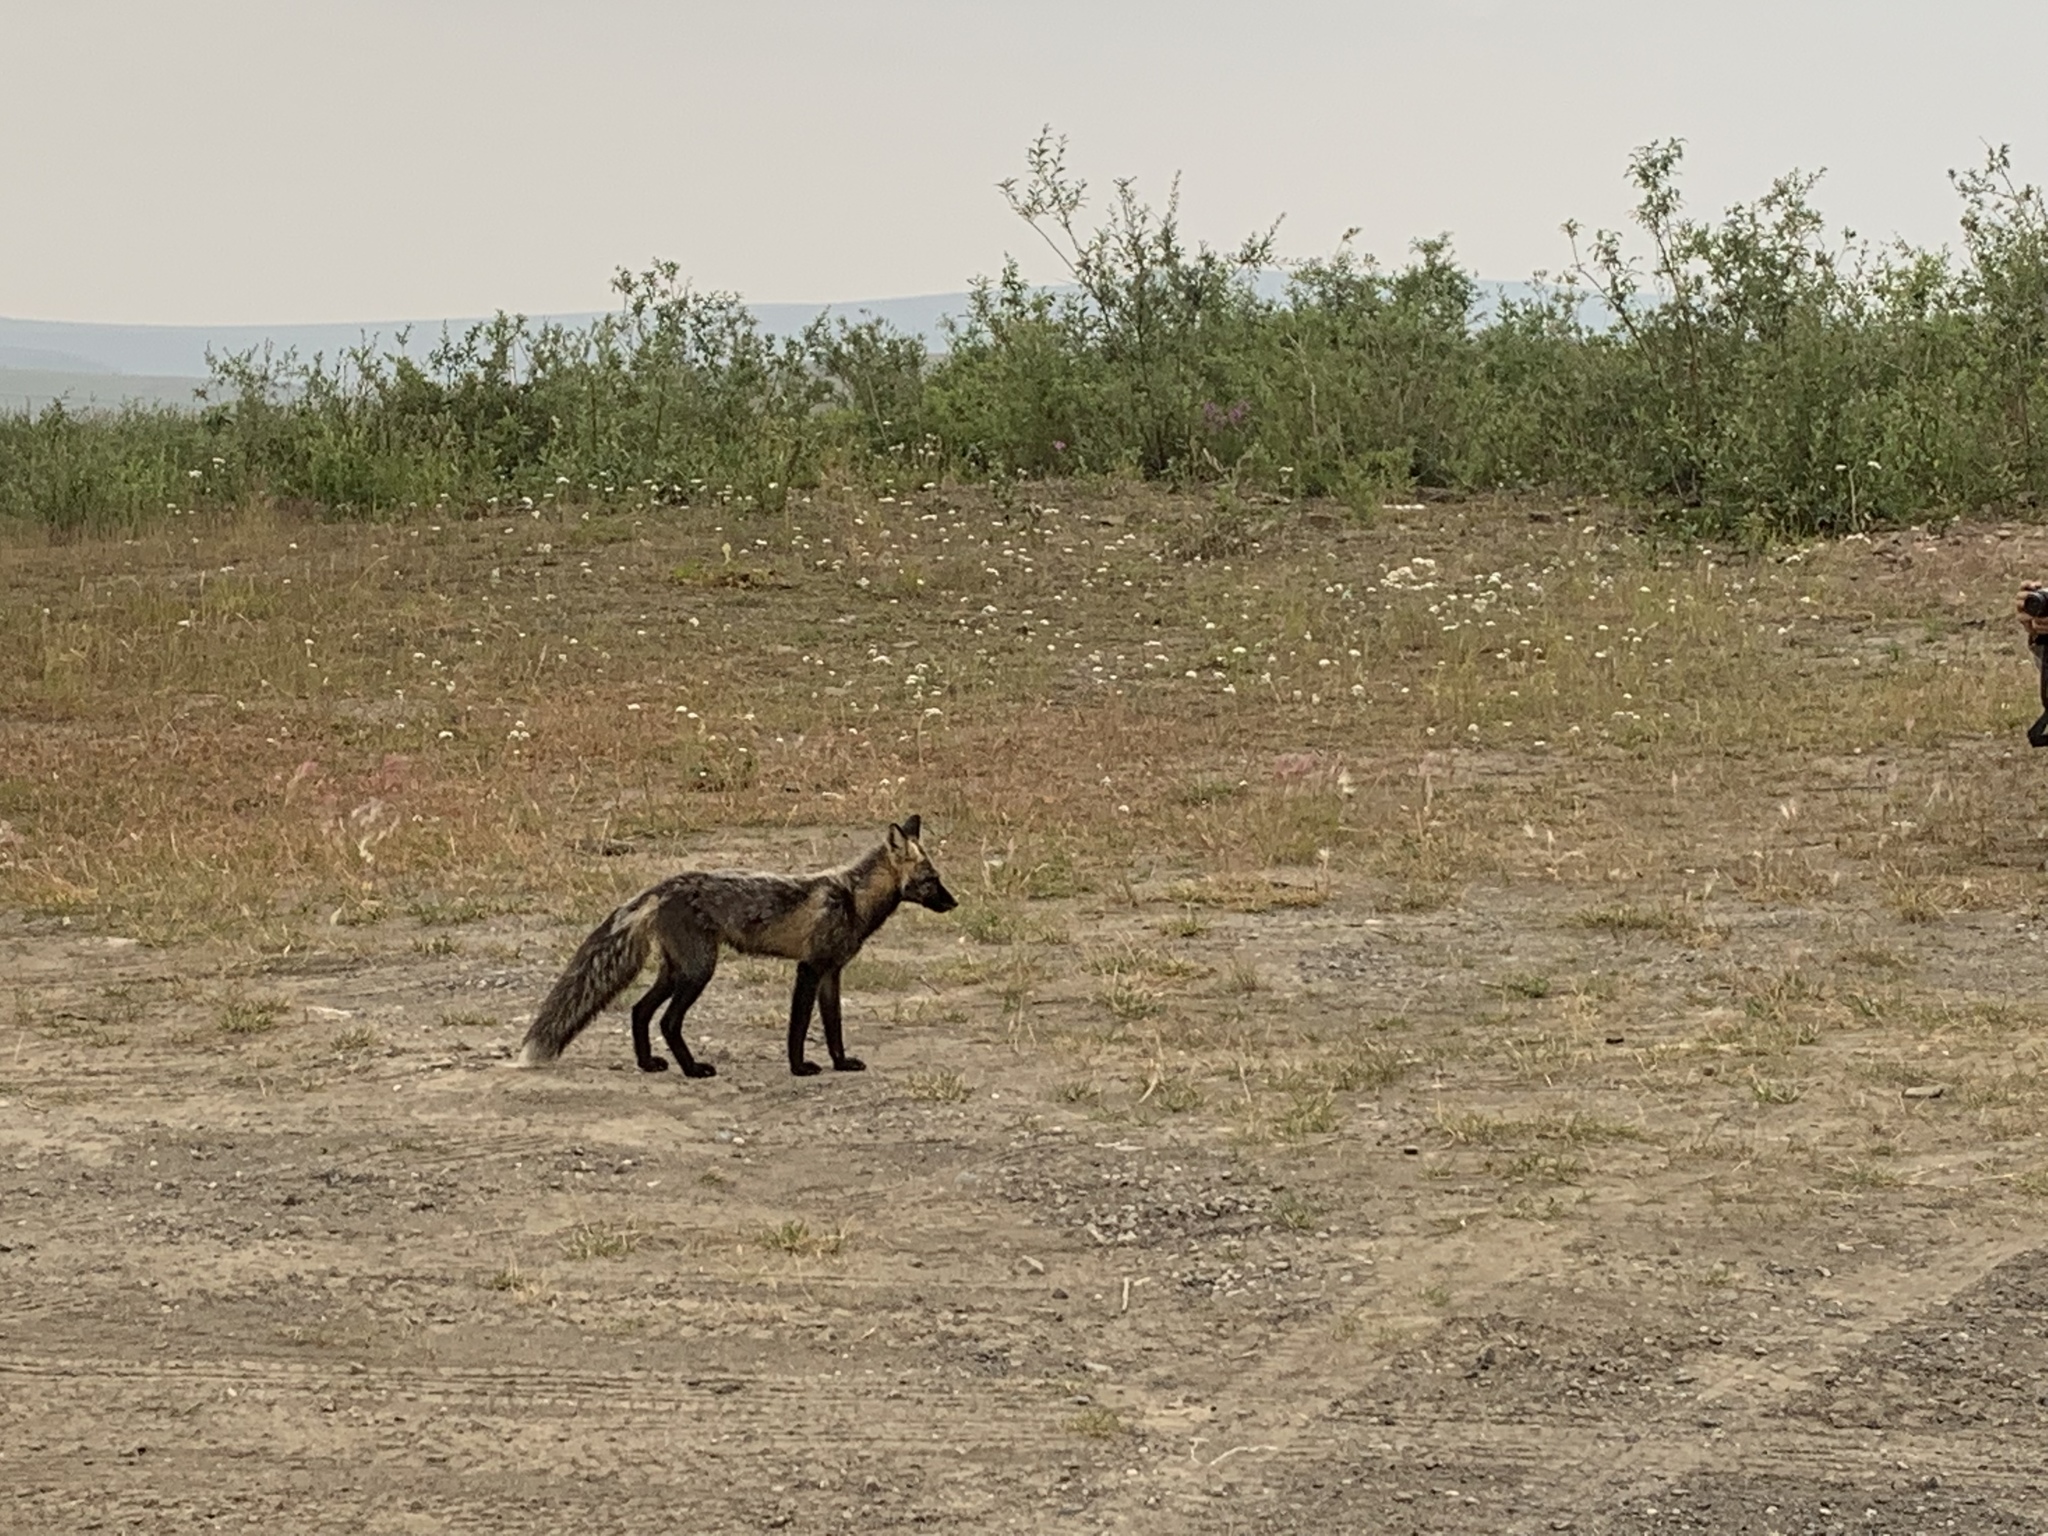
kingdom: Animalia
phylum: Chordata
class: Mammalia
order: Carnivora
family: Canidae
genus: Vulpes
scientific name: Vulpes vulpes
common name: Red fox
